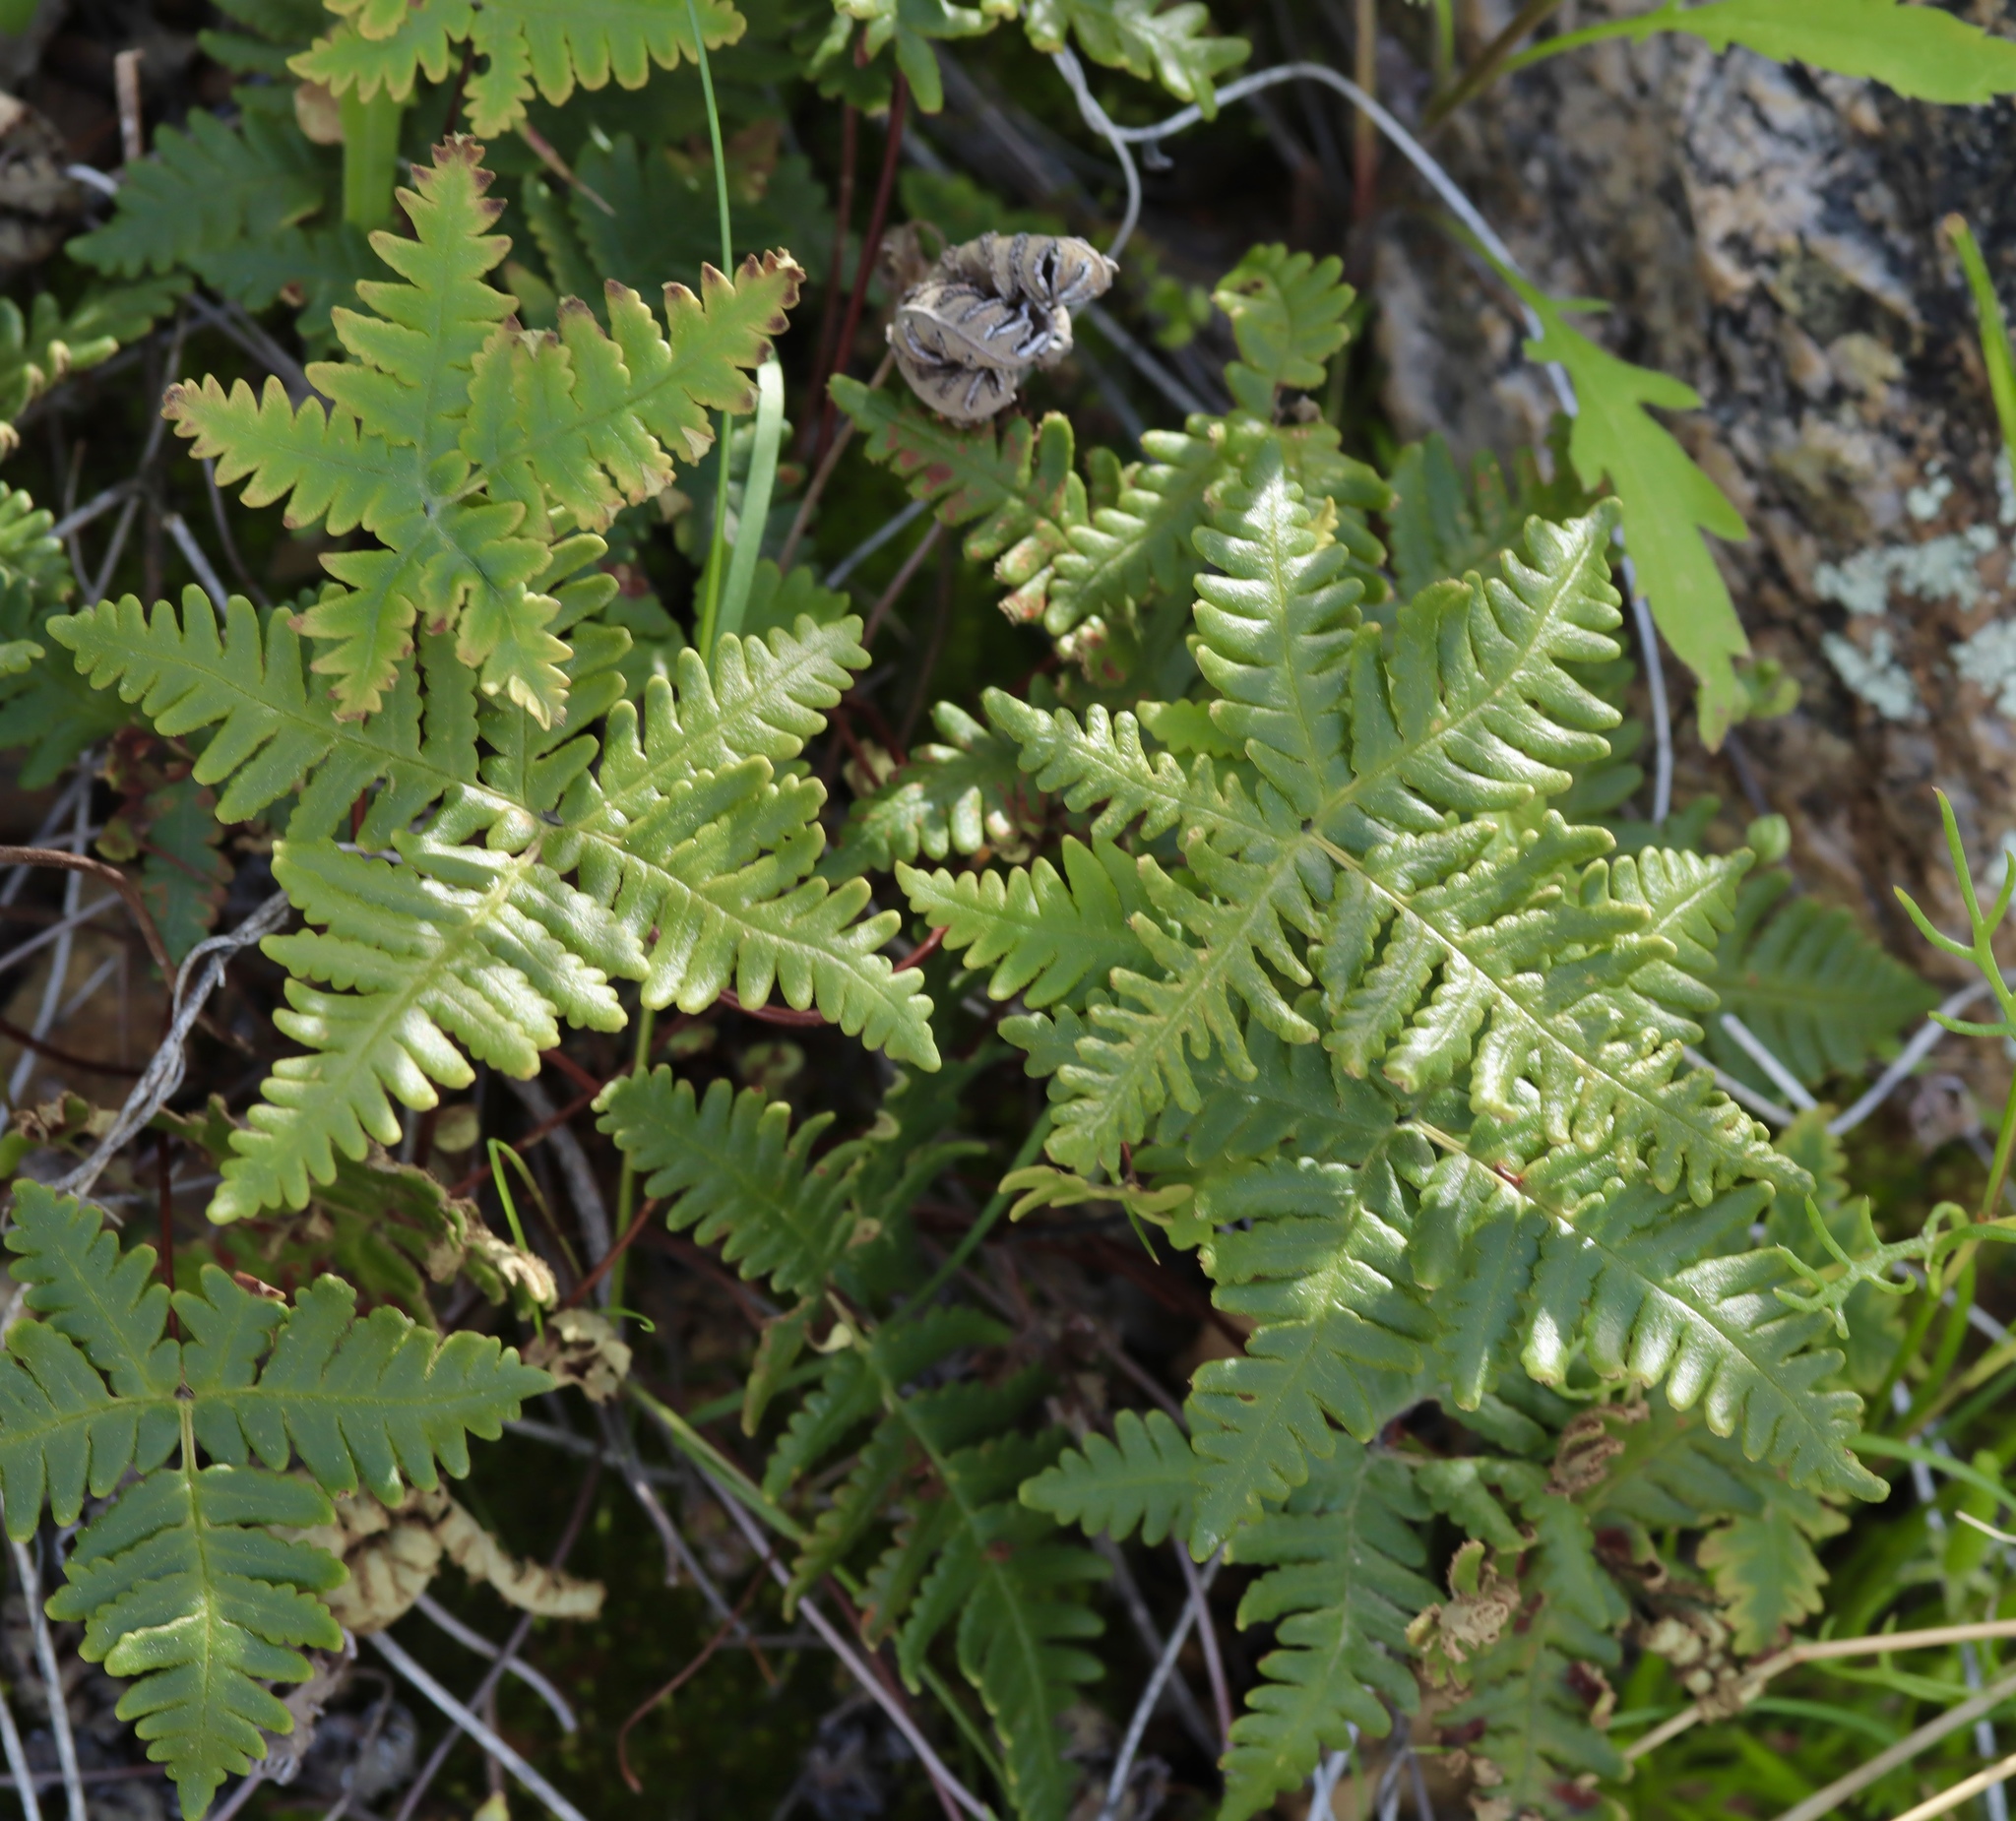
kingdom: Plantae
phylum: Tracheophyta
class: Polypodiopsida
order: Polypodiales
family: Pteridaceae
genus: Notholaena
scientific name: Notholaena standleyi
